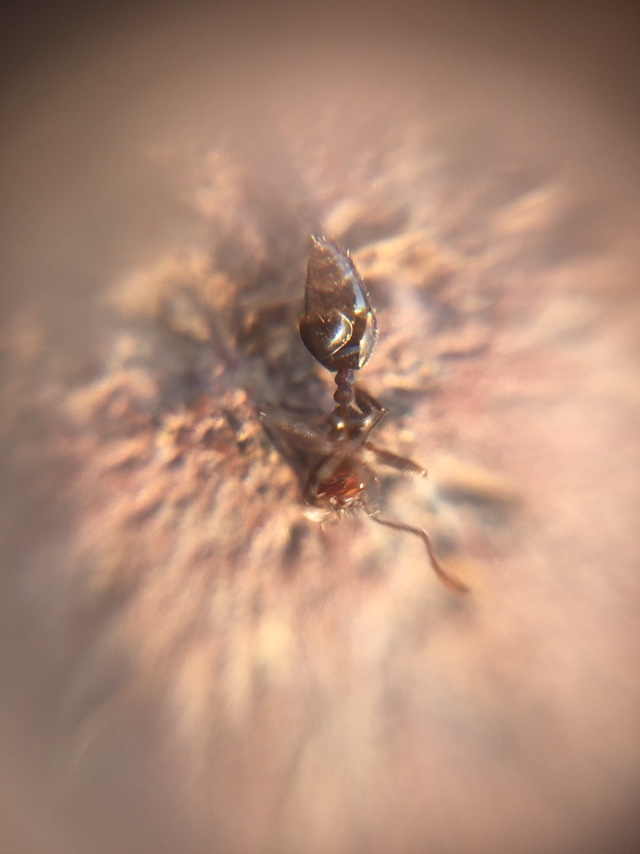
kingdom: Animalia
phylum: Arthropoda
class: Insecta
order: Hymenoptera
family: Formicidae
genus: Monomorium
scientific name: Monomorium indicum
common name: Ant
